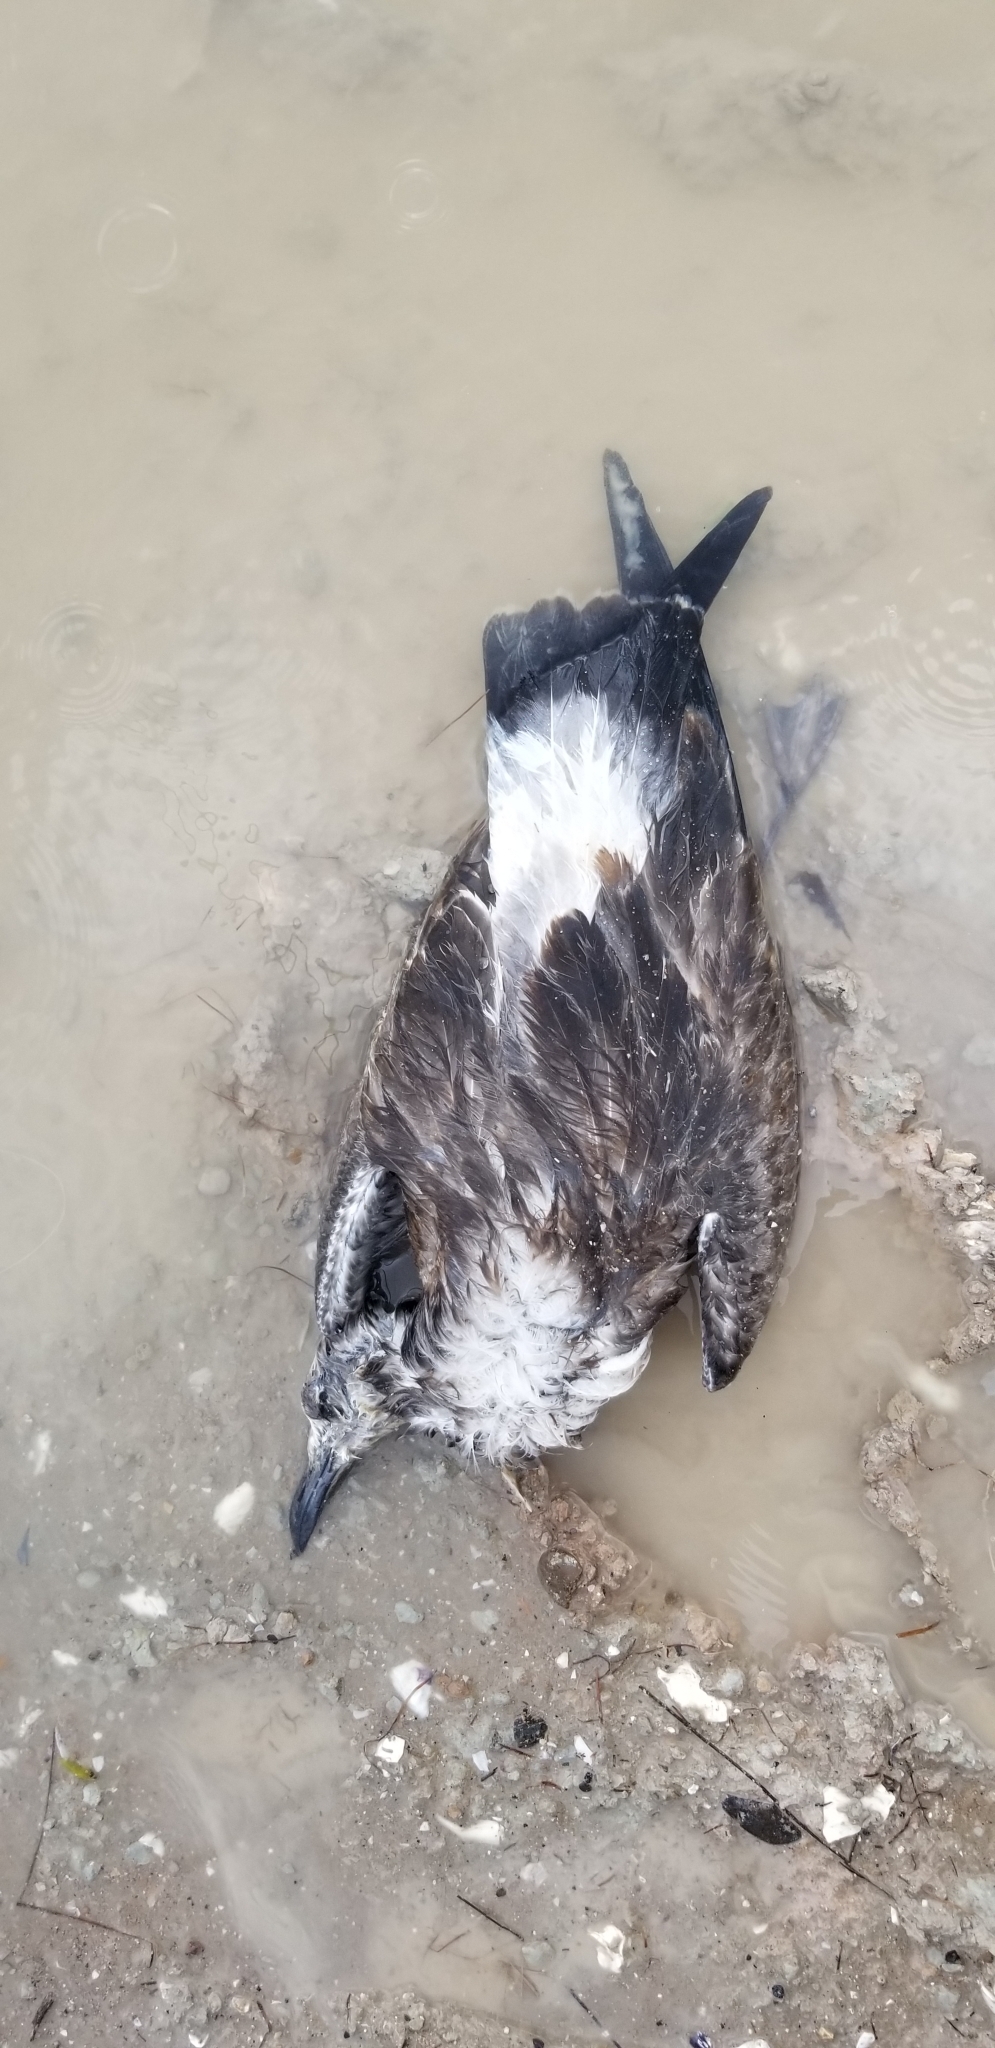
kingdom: Animalia
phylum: Chordata
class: Aves
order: Charadriiformes
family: Laridae
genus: Leucophaeus
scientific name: Leucophaeus atricilla
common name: Laughing gull
